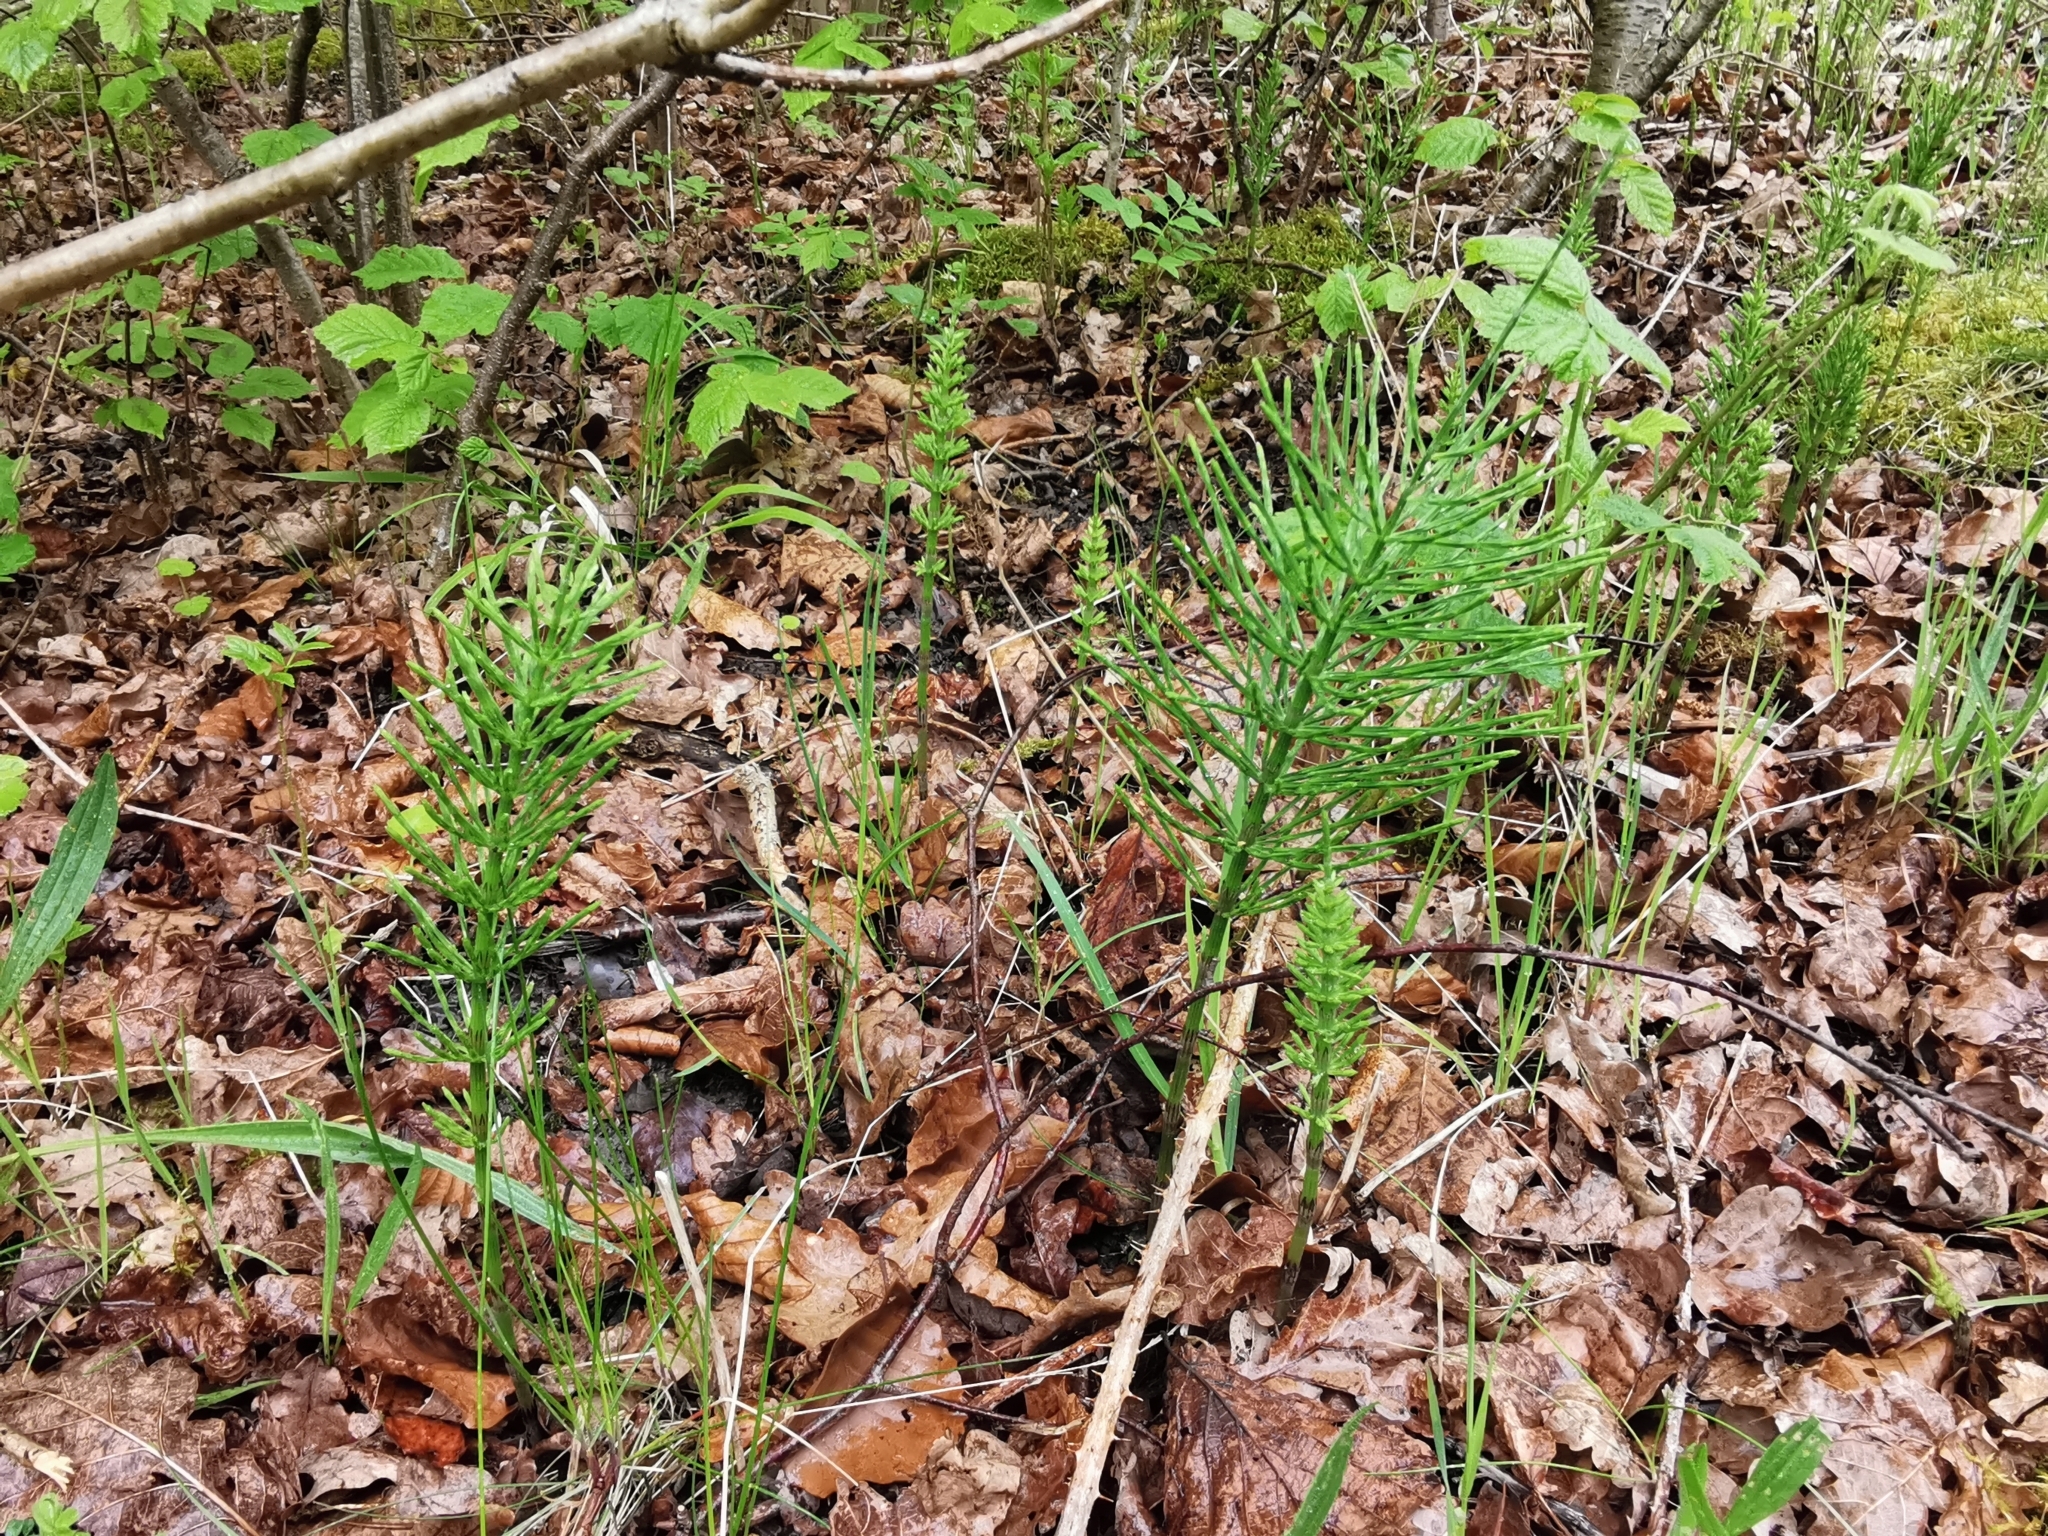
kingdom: Plantae
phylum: Tracheophyta
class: Polypodiopsida
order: Equisetales
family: Equisetaceae
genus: Equisetum
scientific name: Equisetum arvense
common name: Field horsetail
